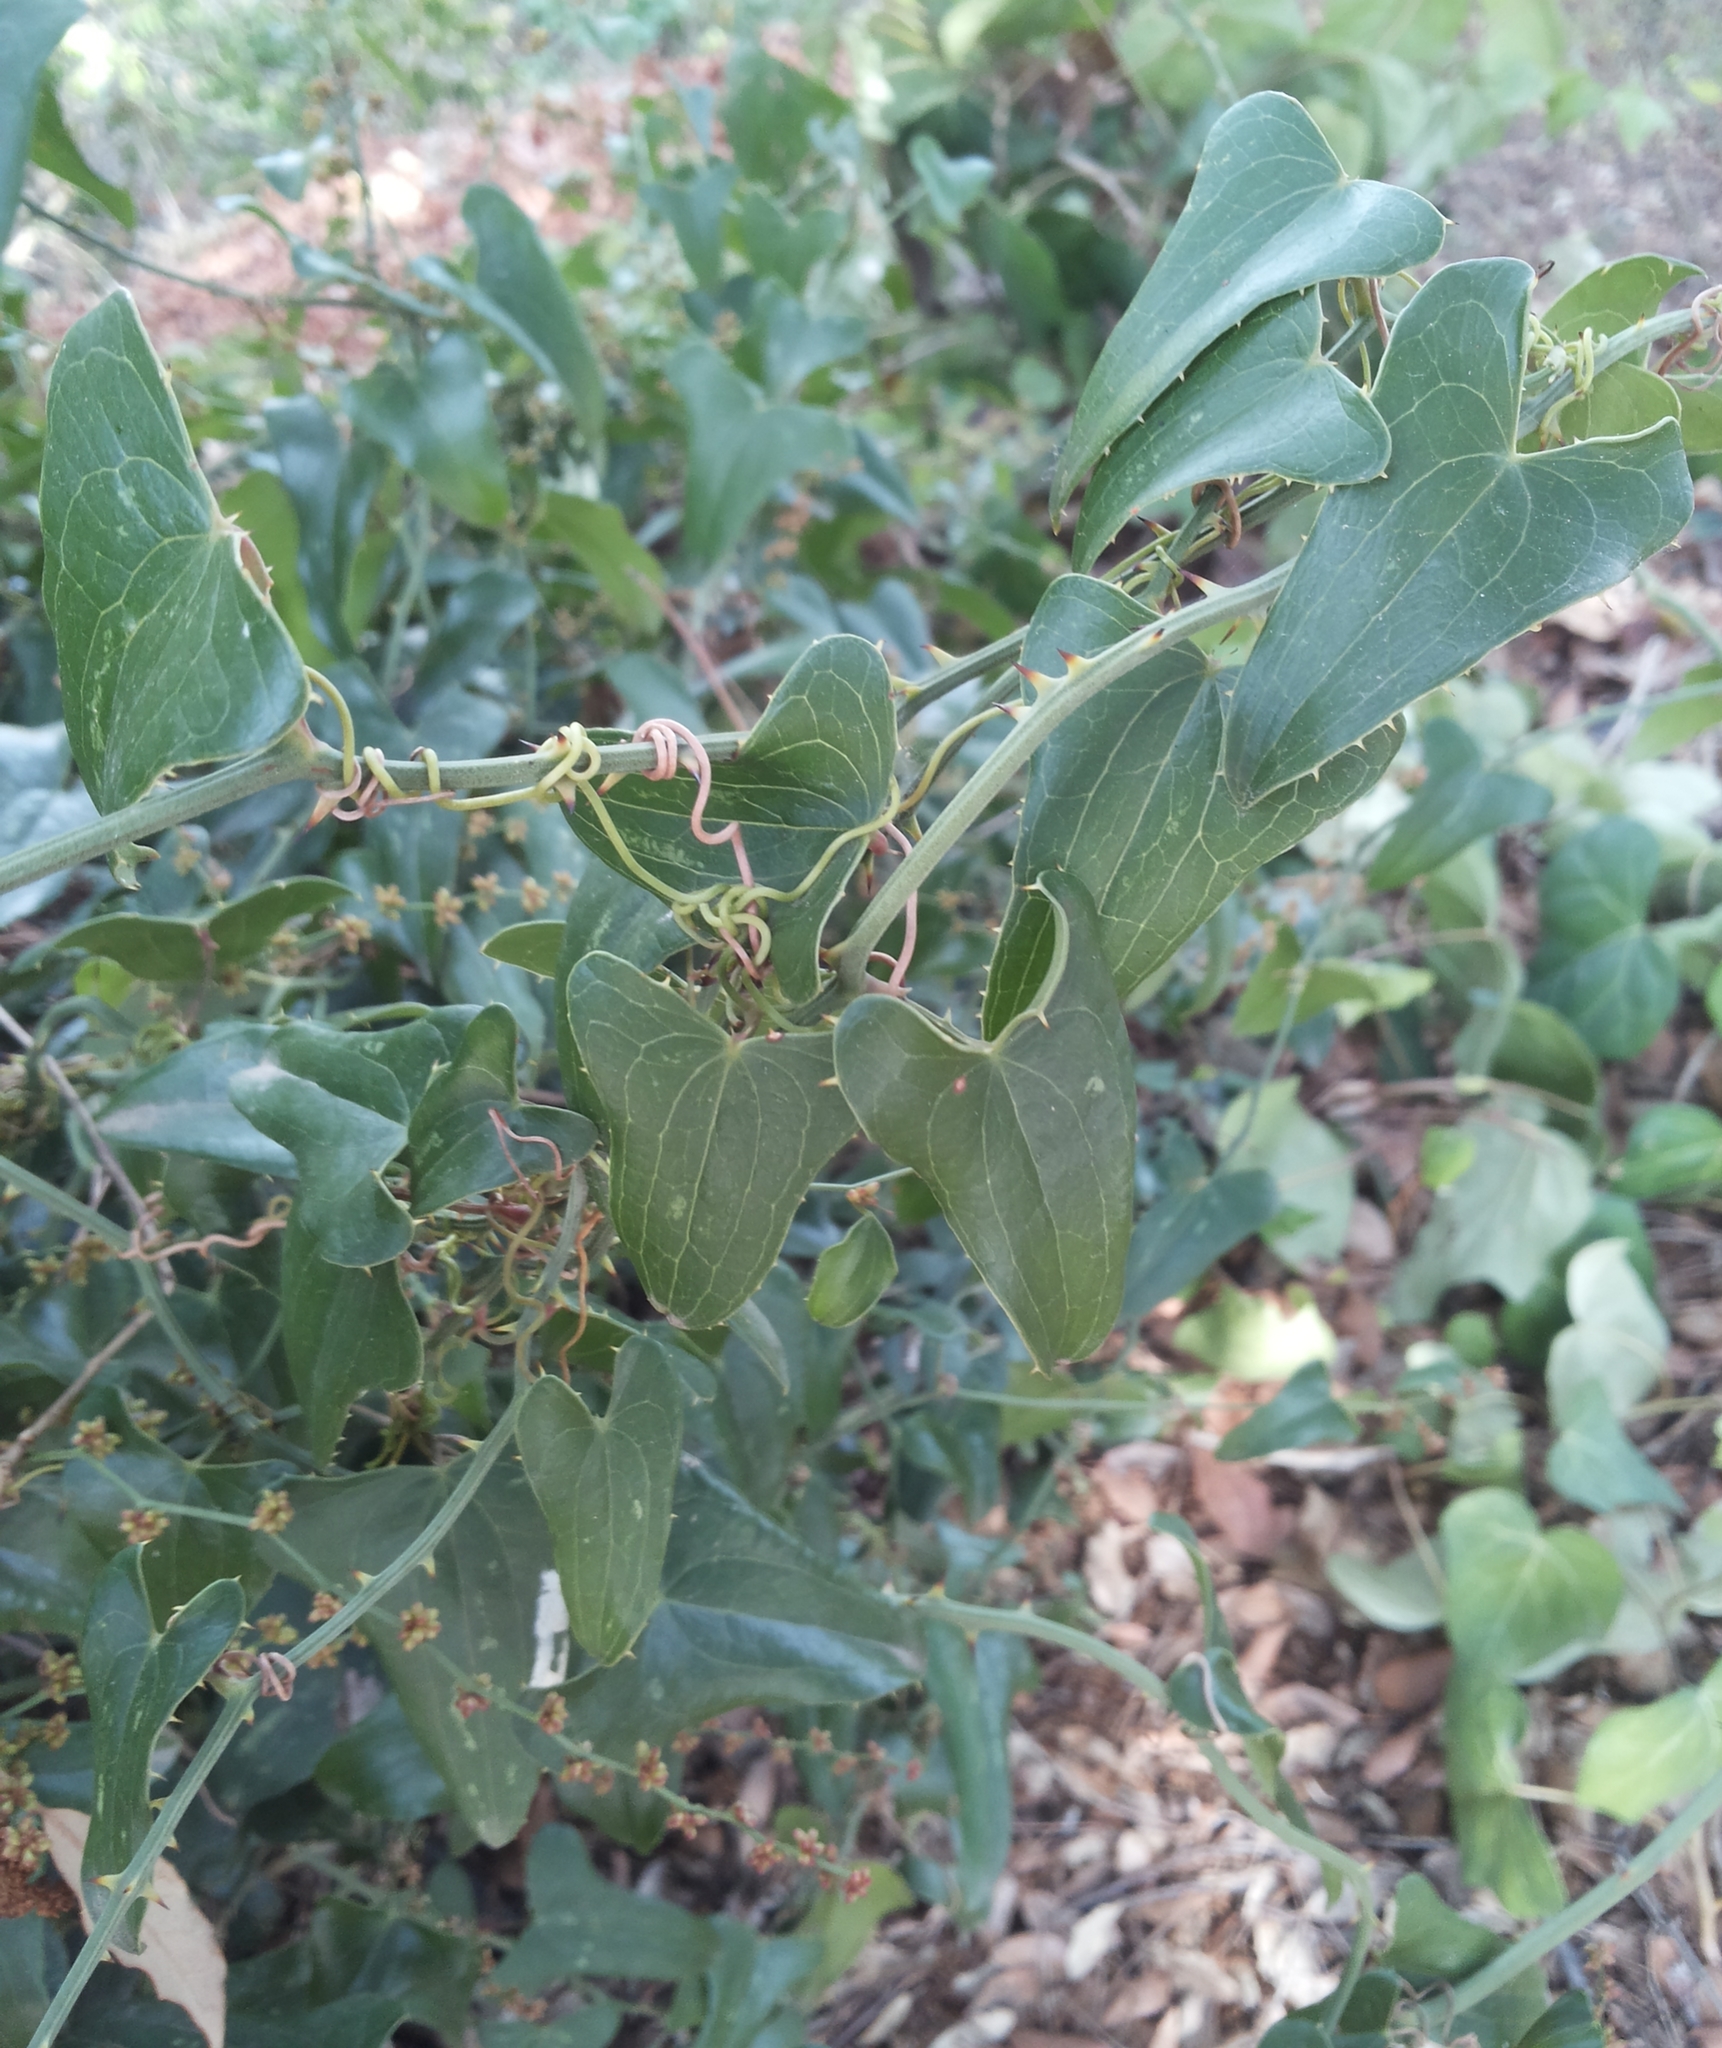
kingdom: Plantae
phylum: Tracheophyta
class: Liliopsida
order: Liliales
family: Smilacaceae
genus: Smilax
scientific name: Smilax aspera
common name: Common smilax
